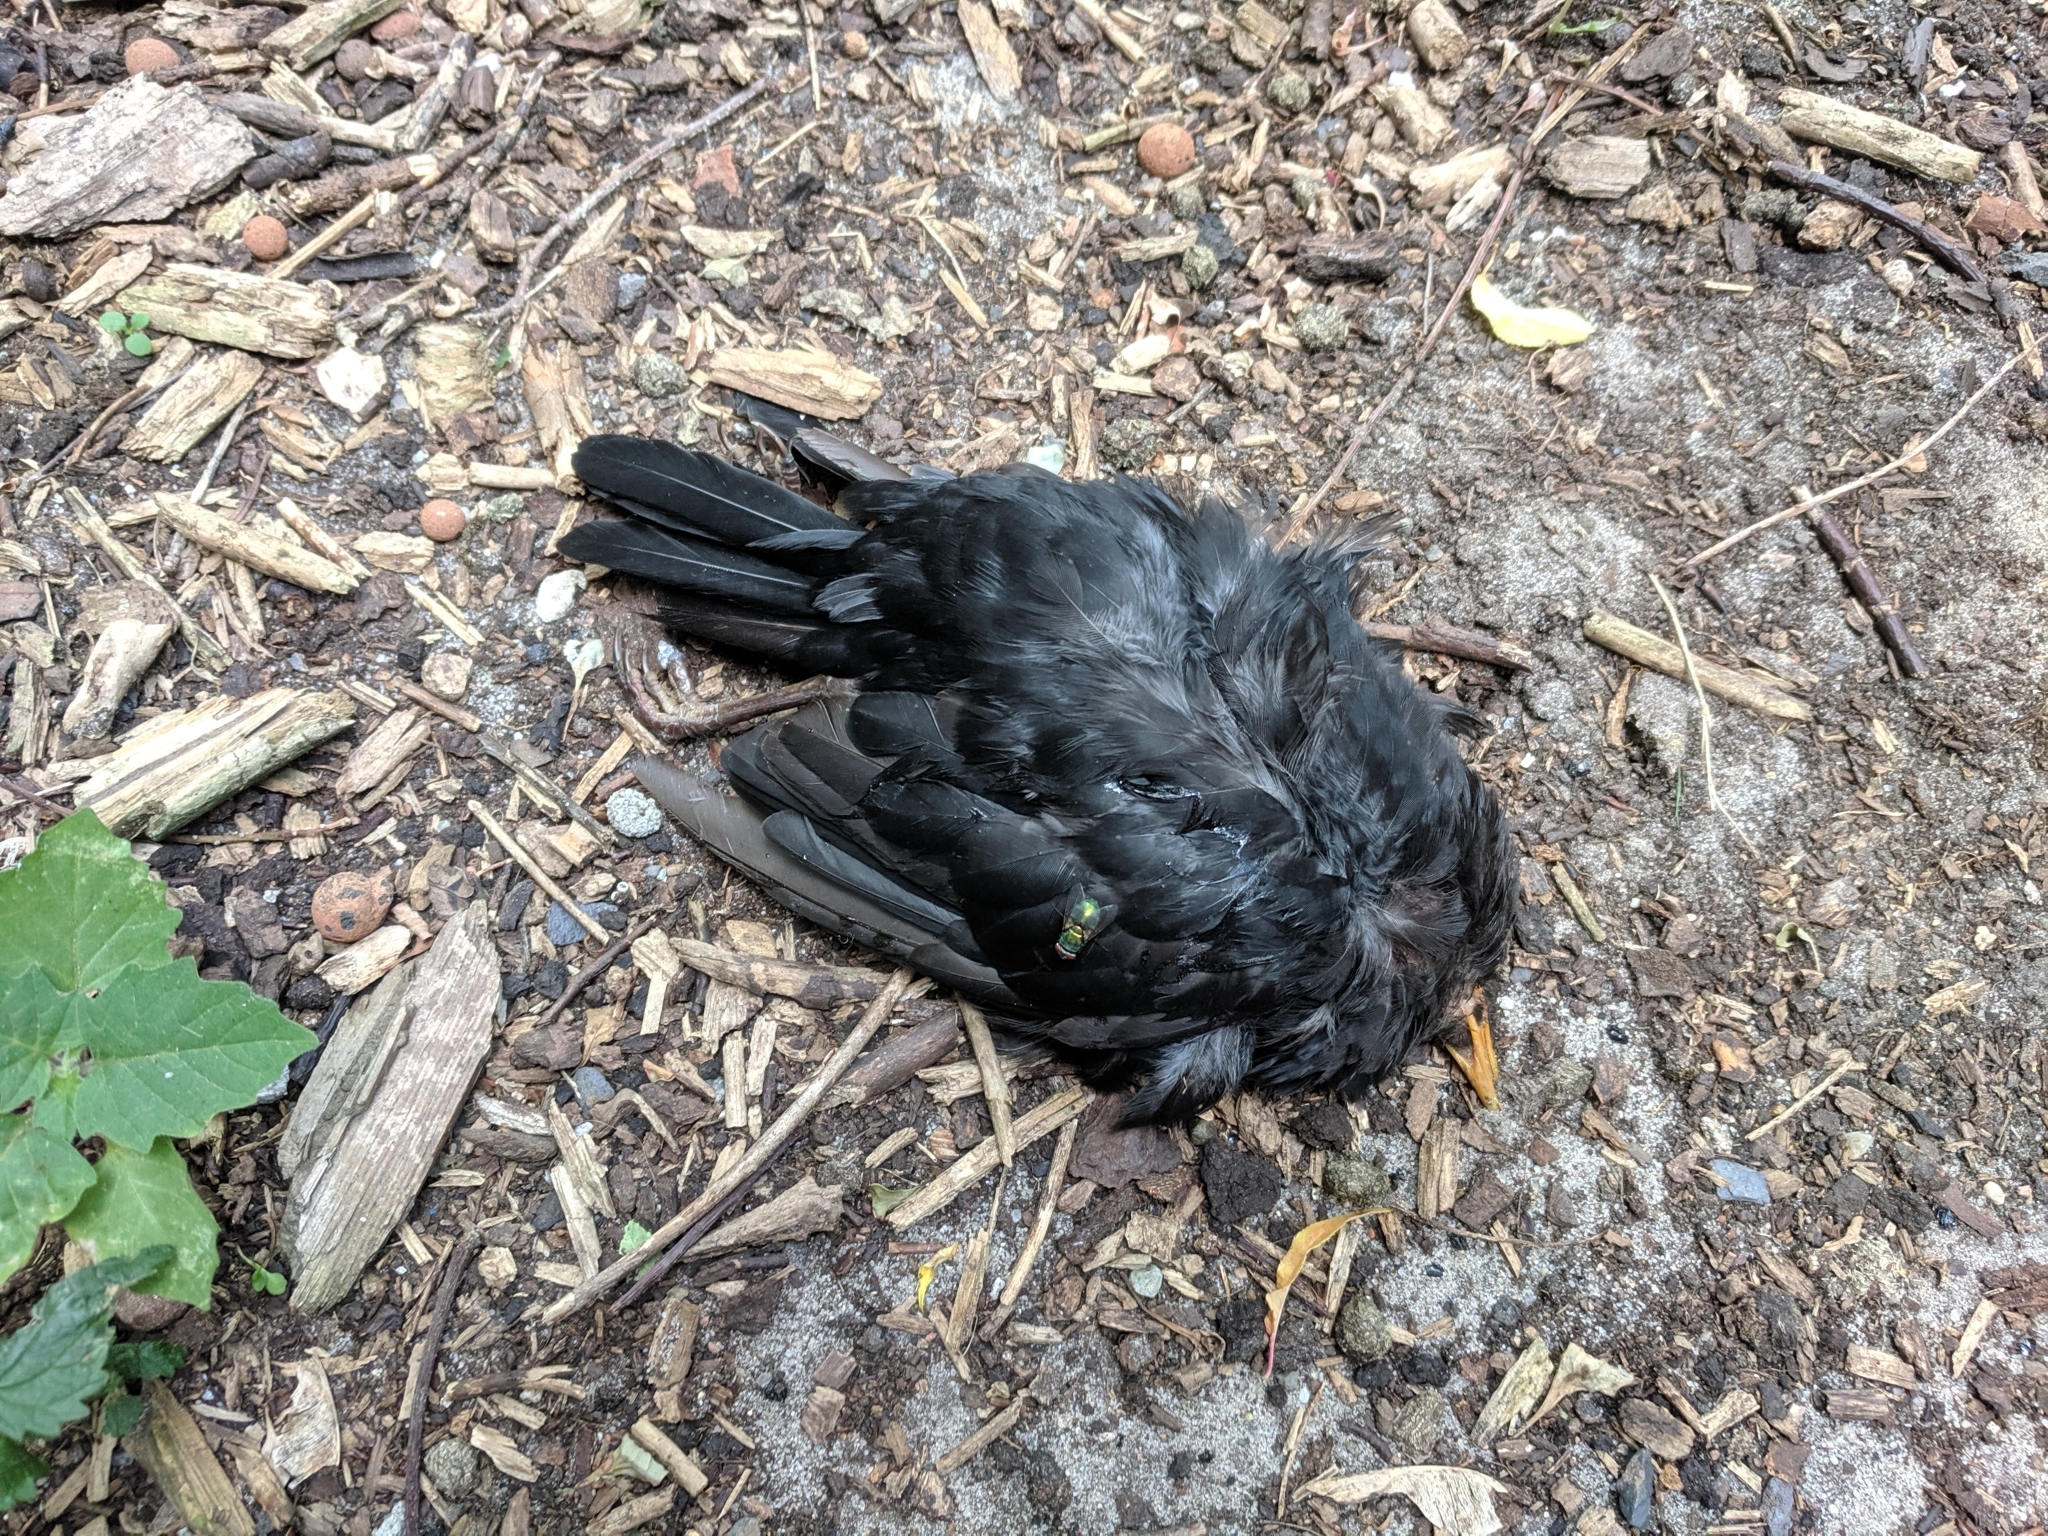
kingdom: Animalia
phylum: Chordata
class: Aves
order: Passeriformes
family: Turdidae
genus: Turdus
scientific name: Turdus merula
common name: Common blackbird
